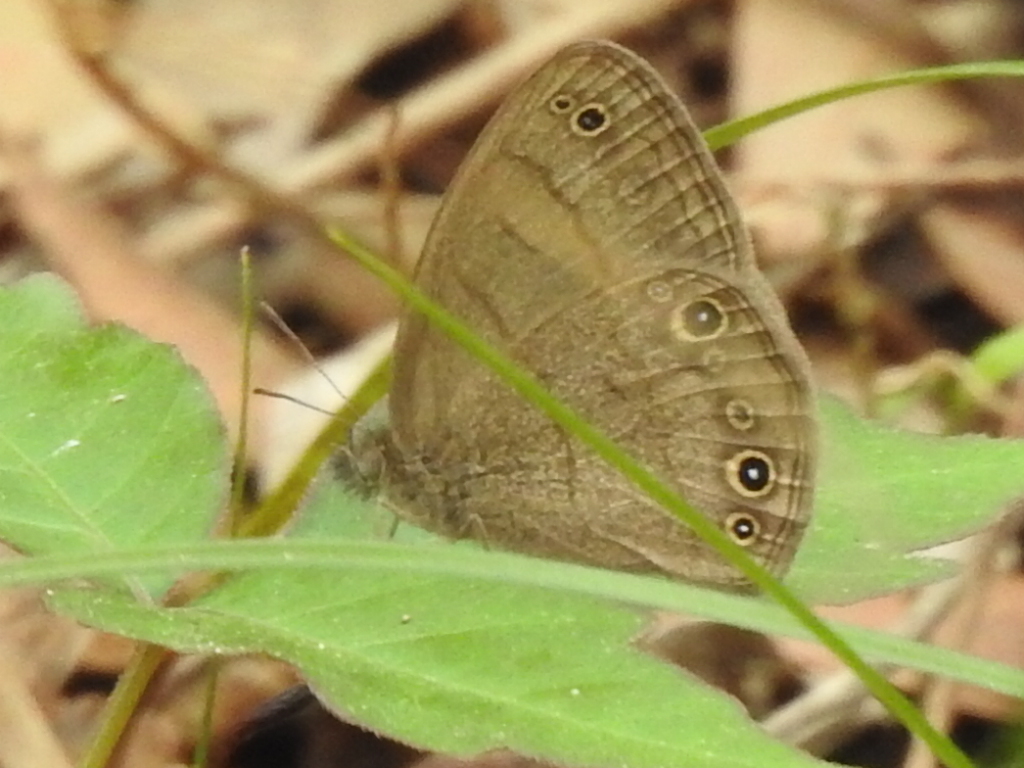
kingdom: Animalia
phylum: Arthropoda
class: Insecta
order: Lepidoptera
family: Nymphalidae
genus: Hermeuptychia
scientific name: Hermeuptychia hermes
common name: Hermes satyr
